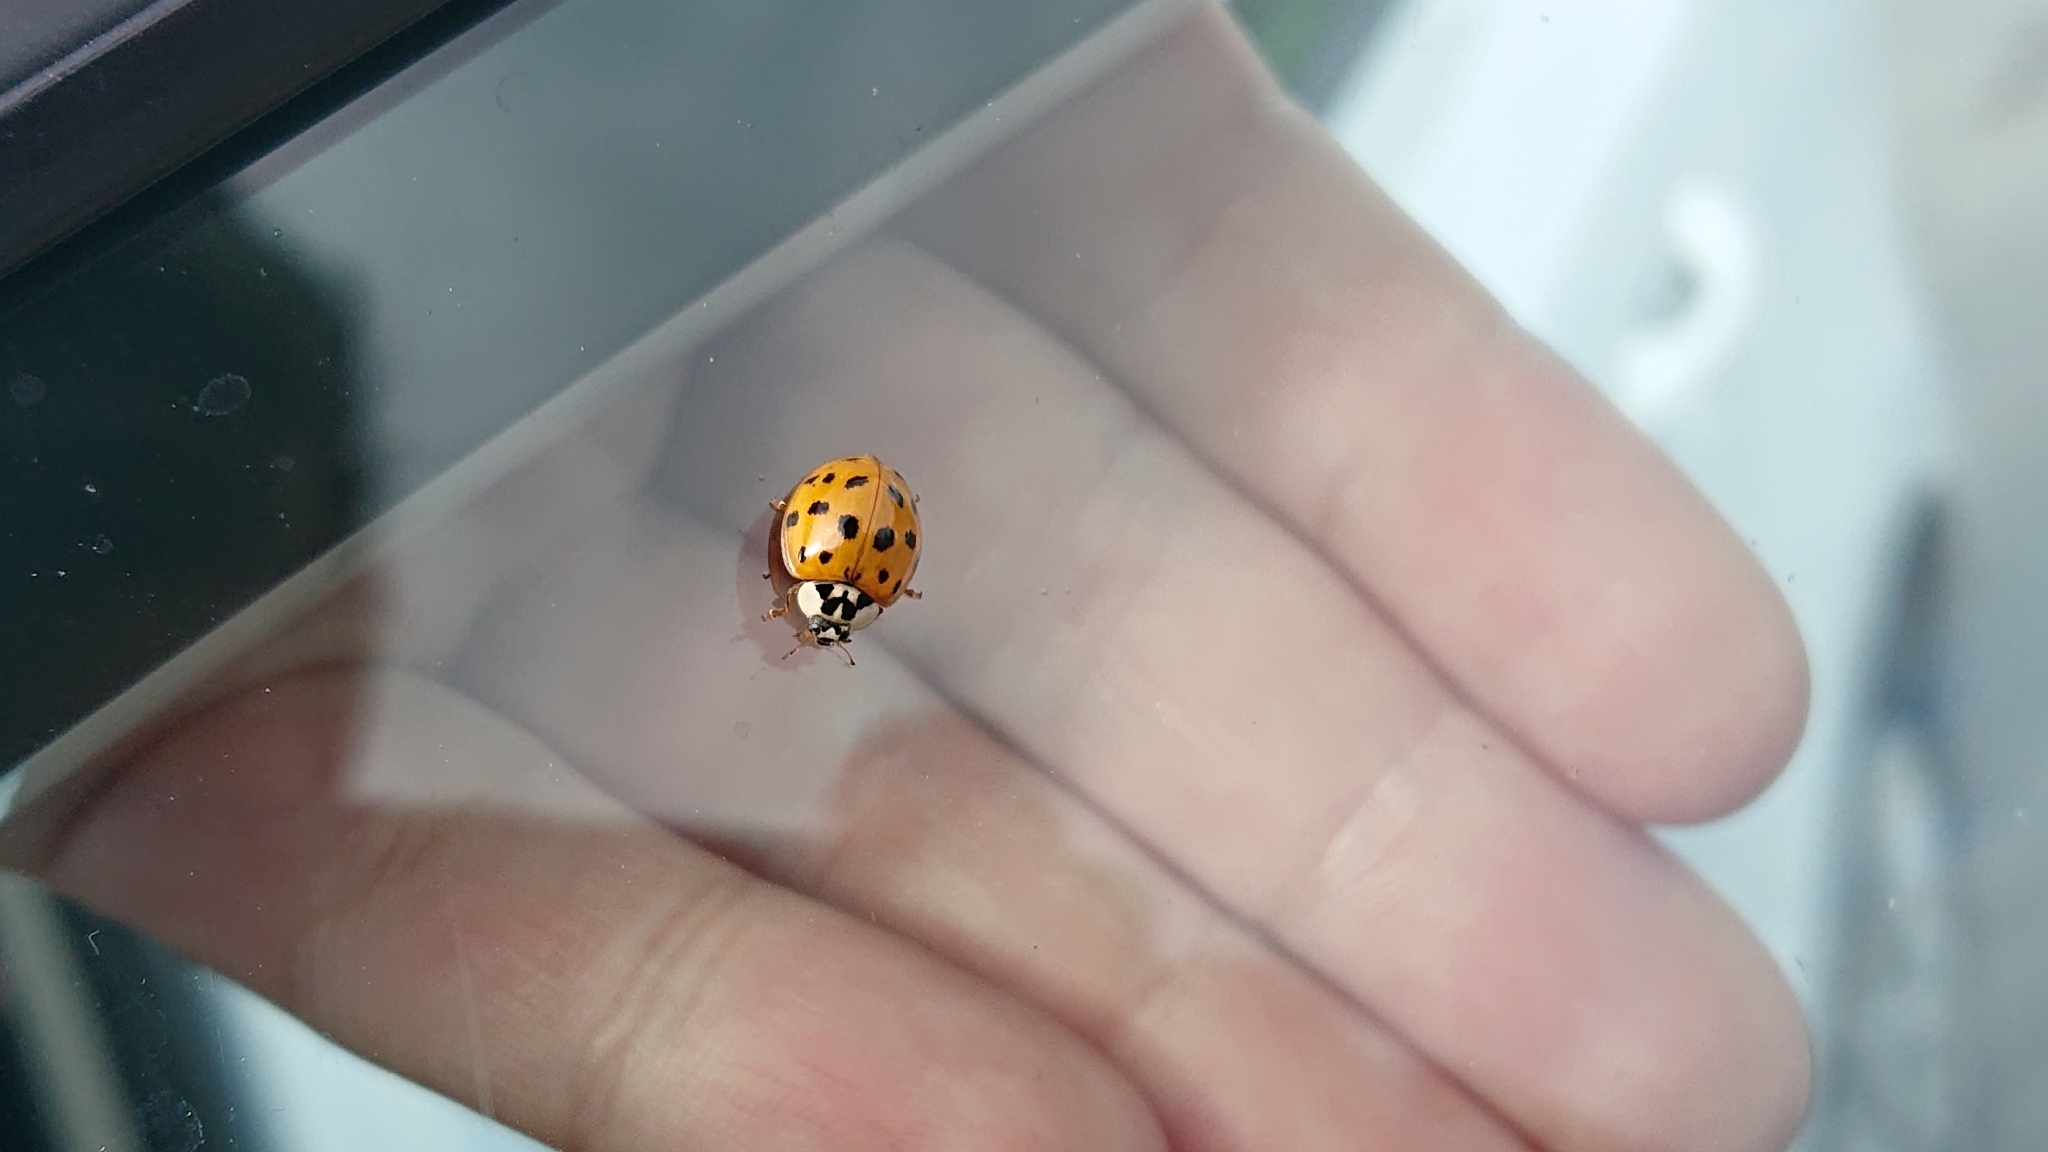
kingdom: Animalia
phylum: Arthropoda
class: Insecta
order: Coleoptera
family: Coccinellidae
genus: Harmonia
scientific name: Harmonia axyridis
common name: Harlequin ladybird
